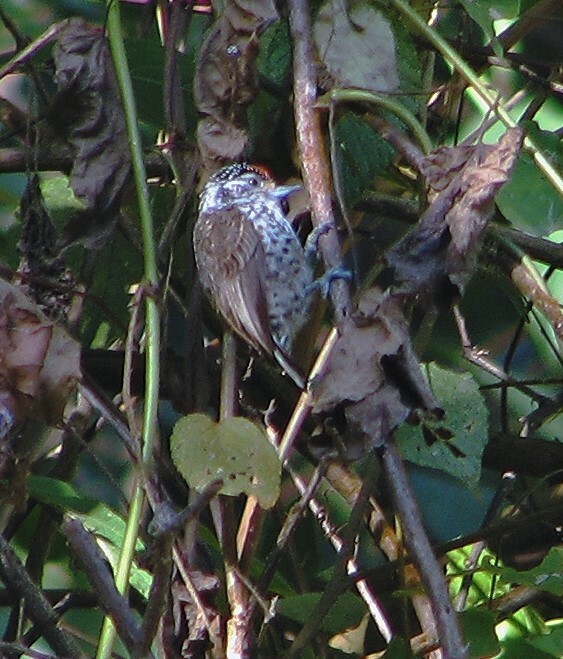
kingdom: Animalia
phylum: Chordata
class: Aves
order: Piciformes
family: Picidae
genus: Picumnus
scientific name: Picumnus cirratus
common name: White-barred piculet
